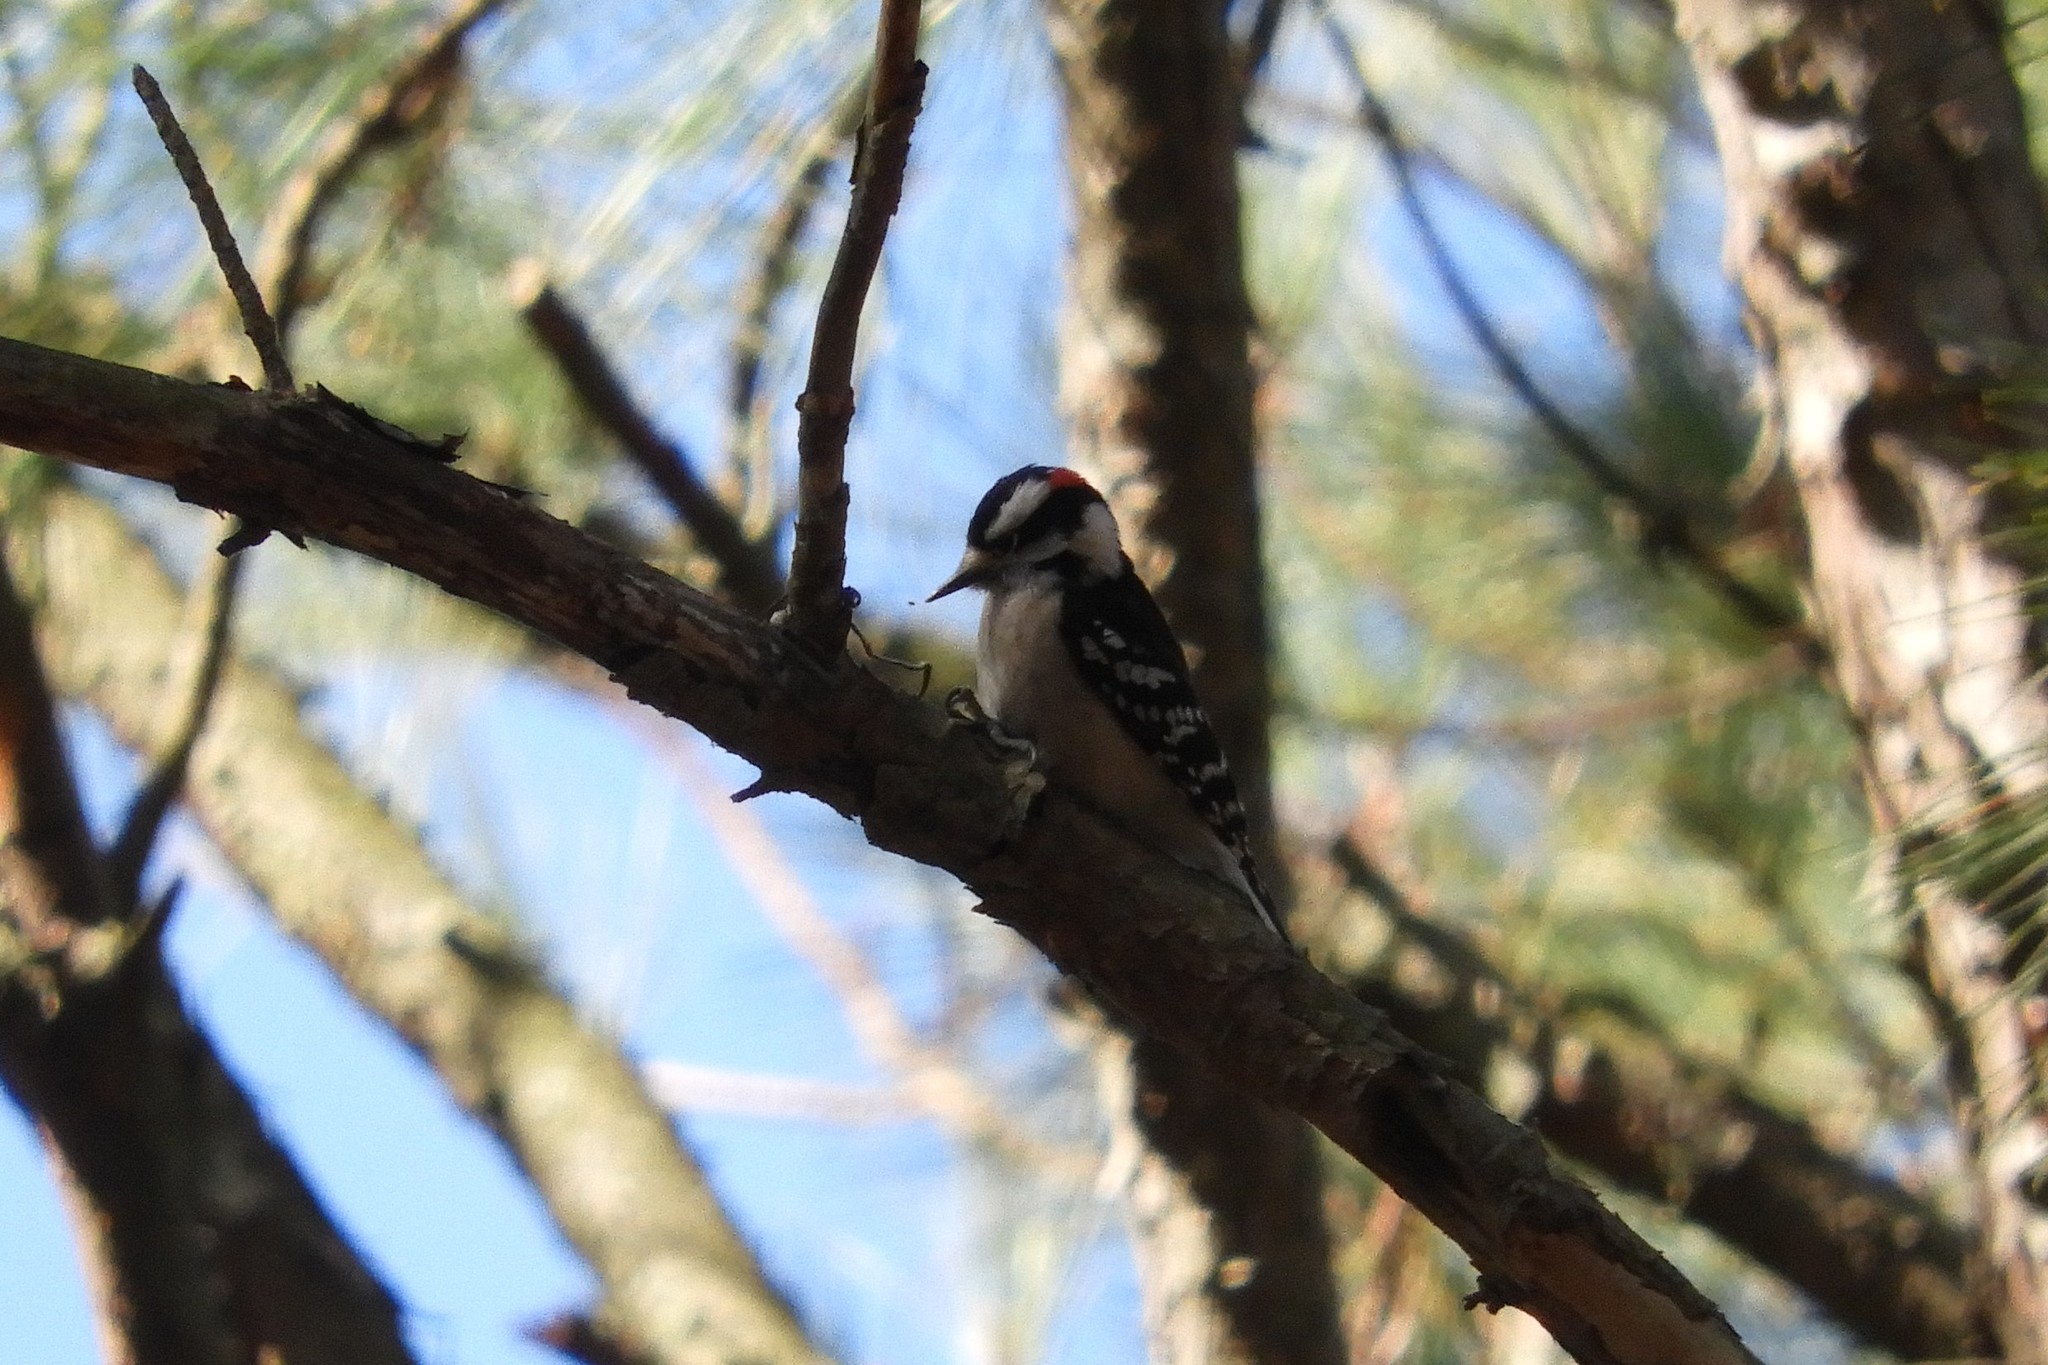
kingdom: Animalia
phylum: Chordata
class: Aves
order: Piciformes
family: Picidae
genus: Dryobates
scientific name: Dryobates pubescens
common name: Downy woodpecker
